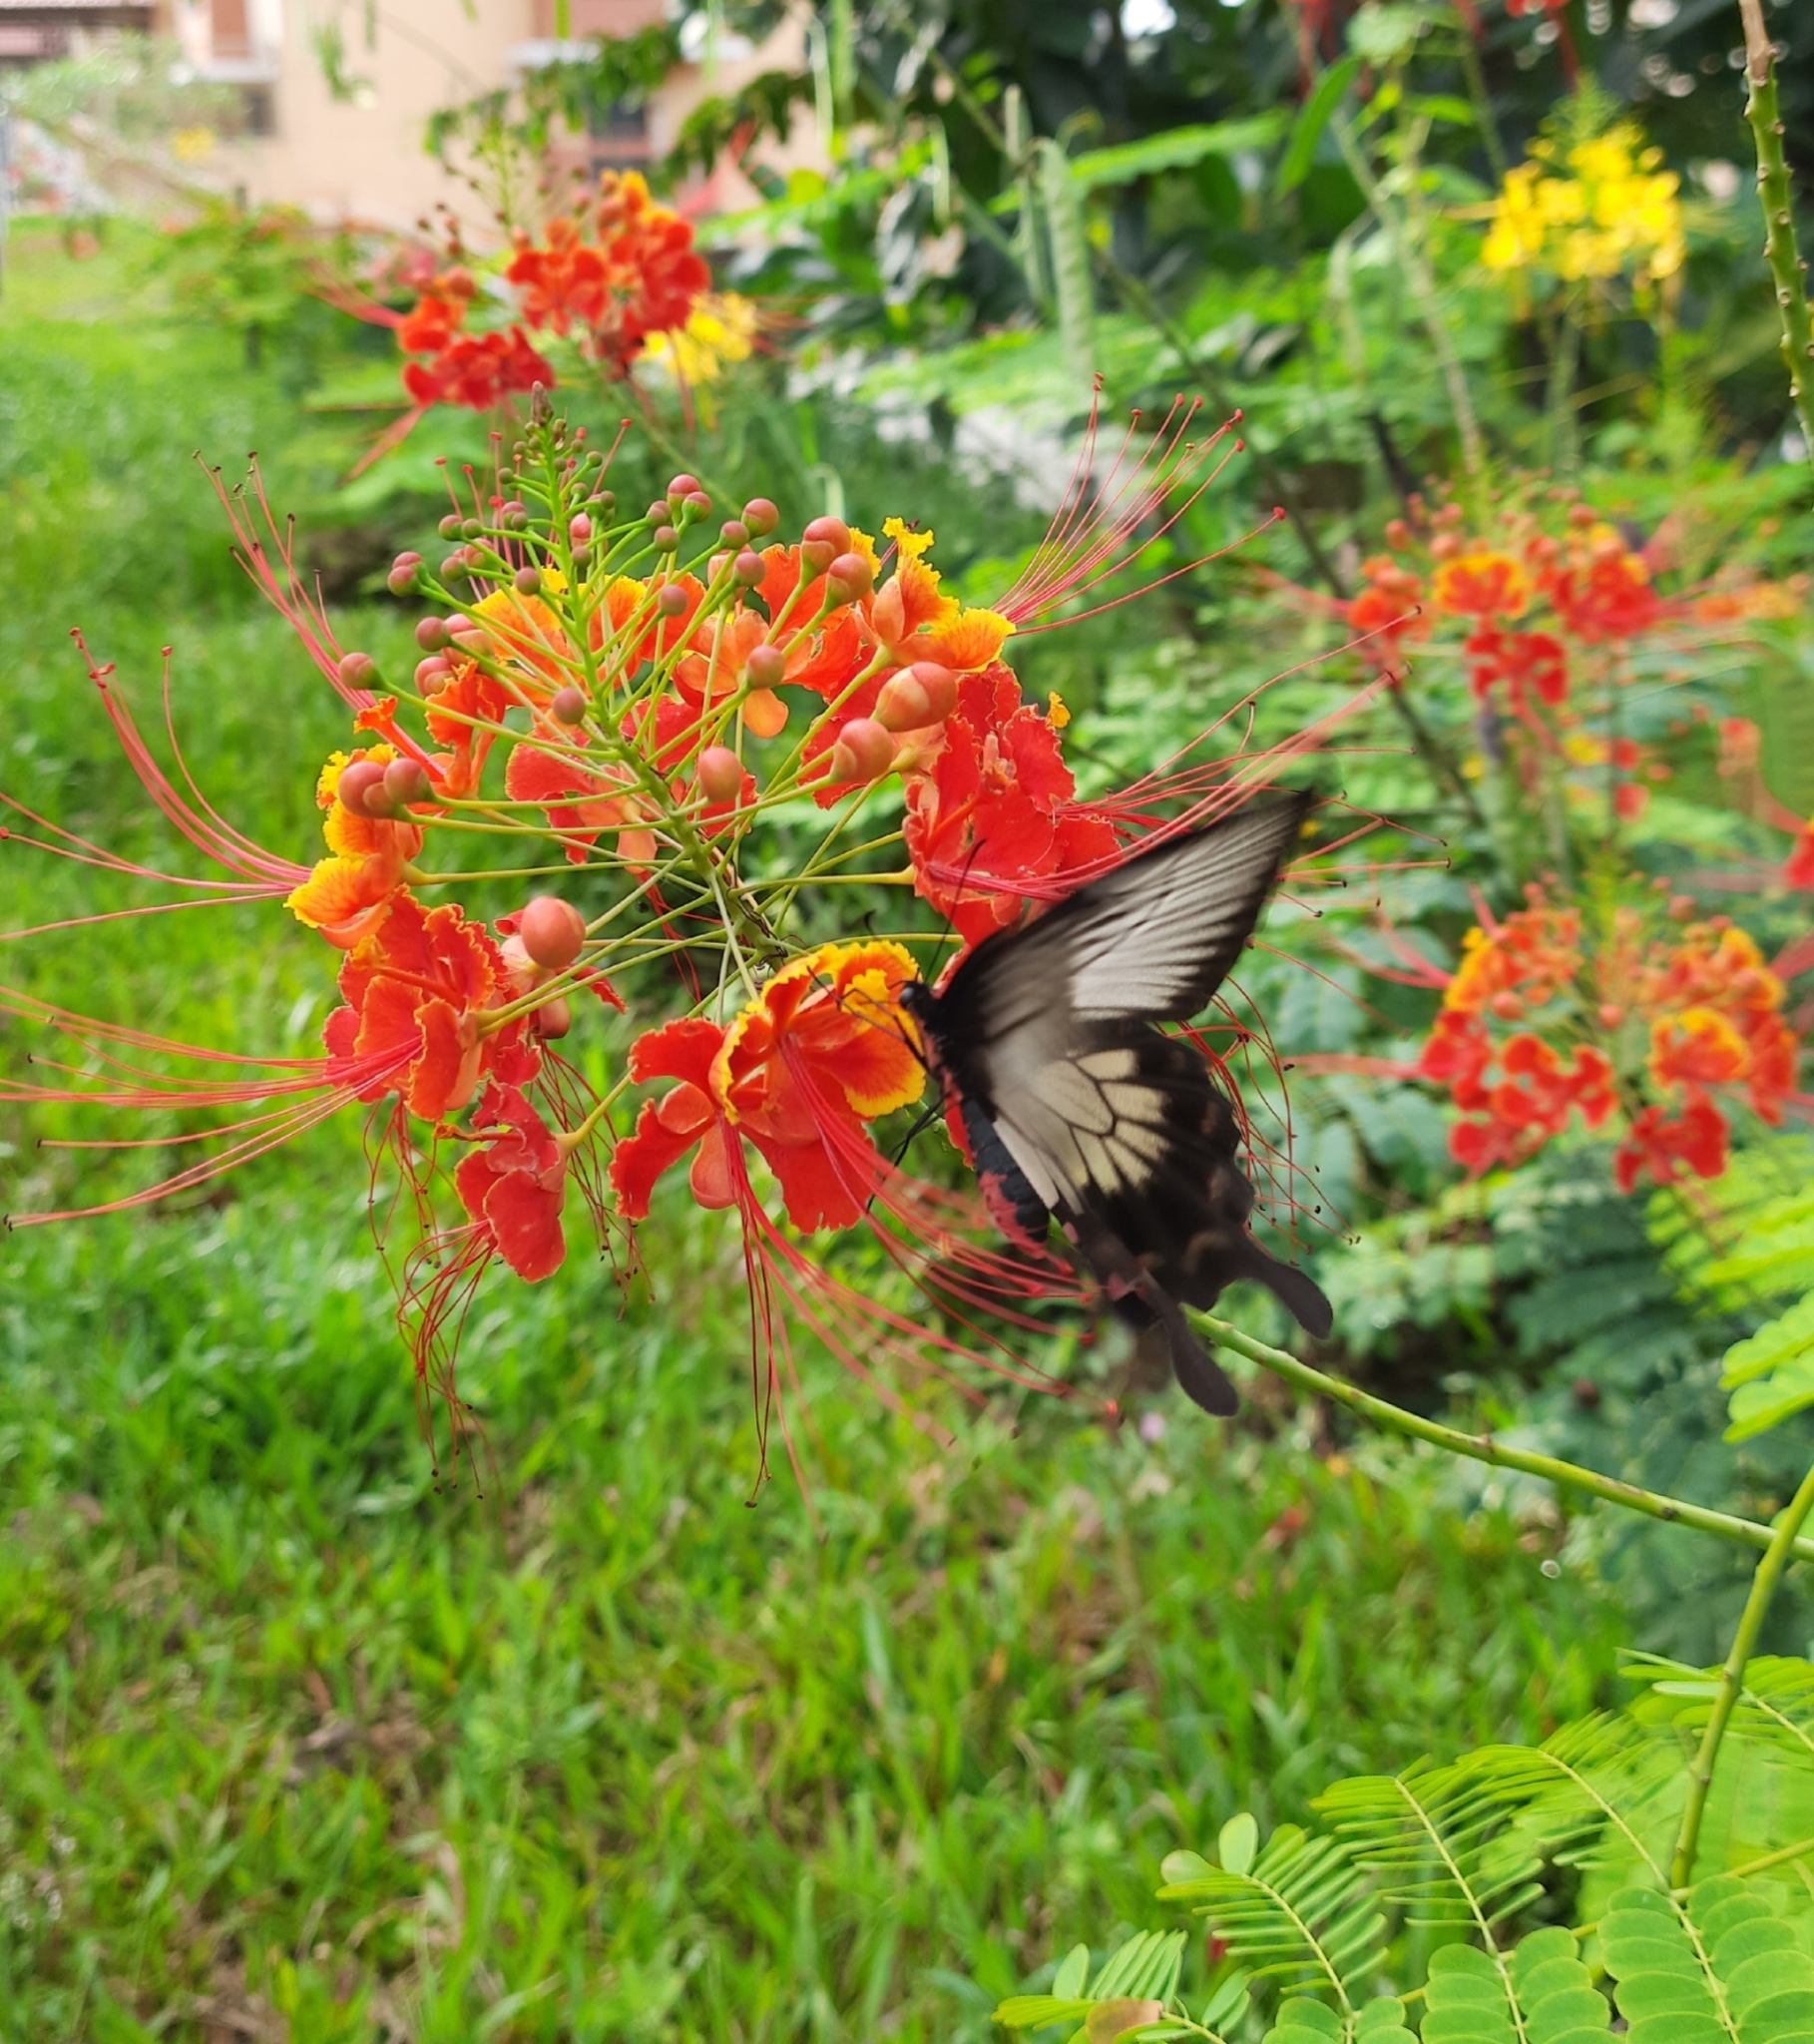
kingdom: Animalia
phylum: Arthropoda
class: Insecta
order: Lepidoptera
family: Papilionidae
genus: Pachliopta
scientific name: Pachliopta pandiyana
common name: Malabar rose
